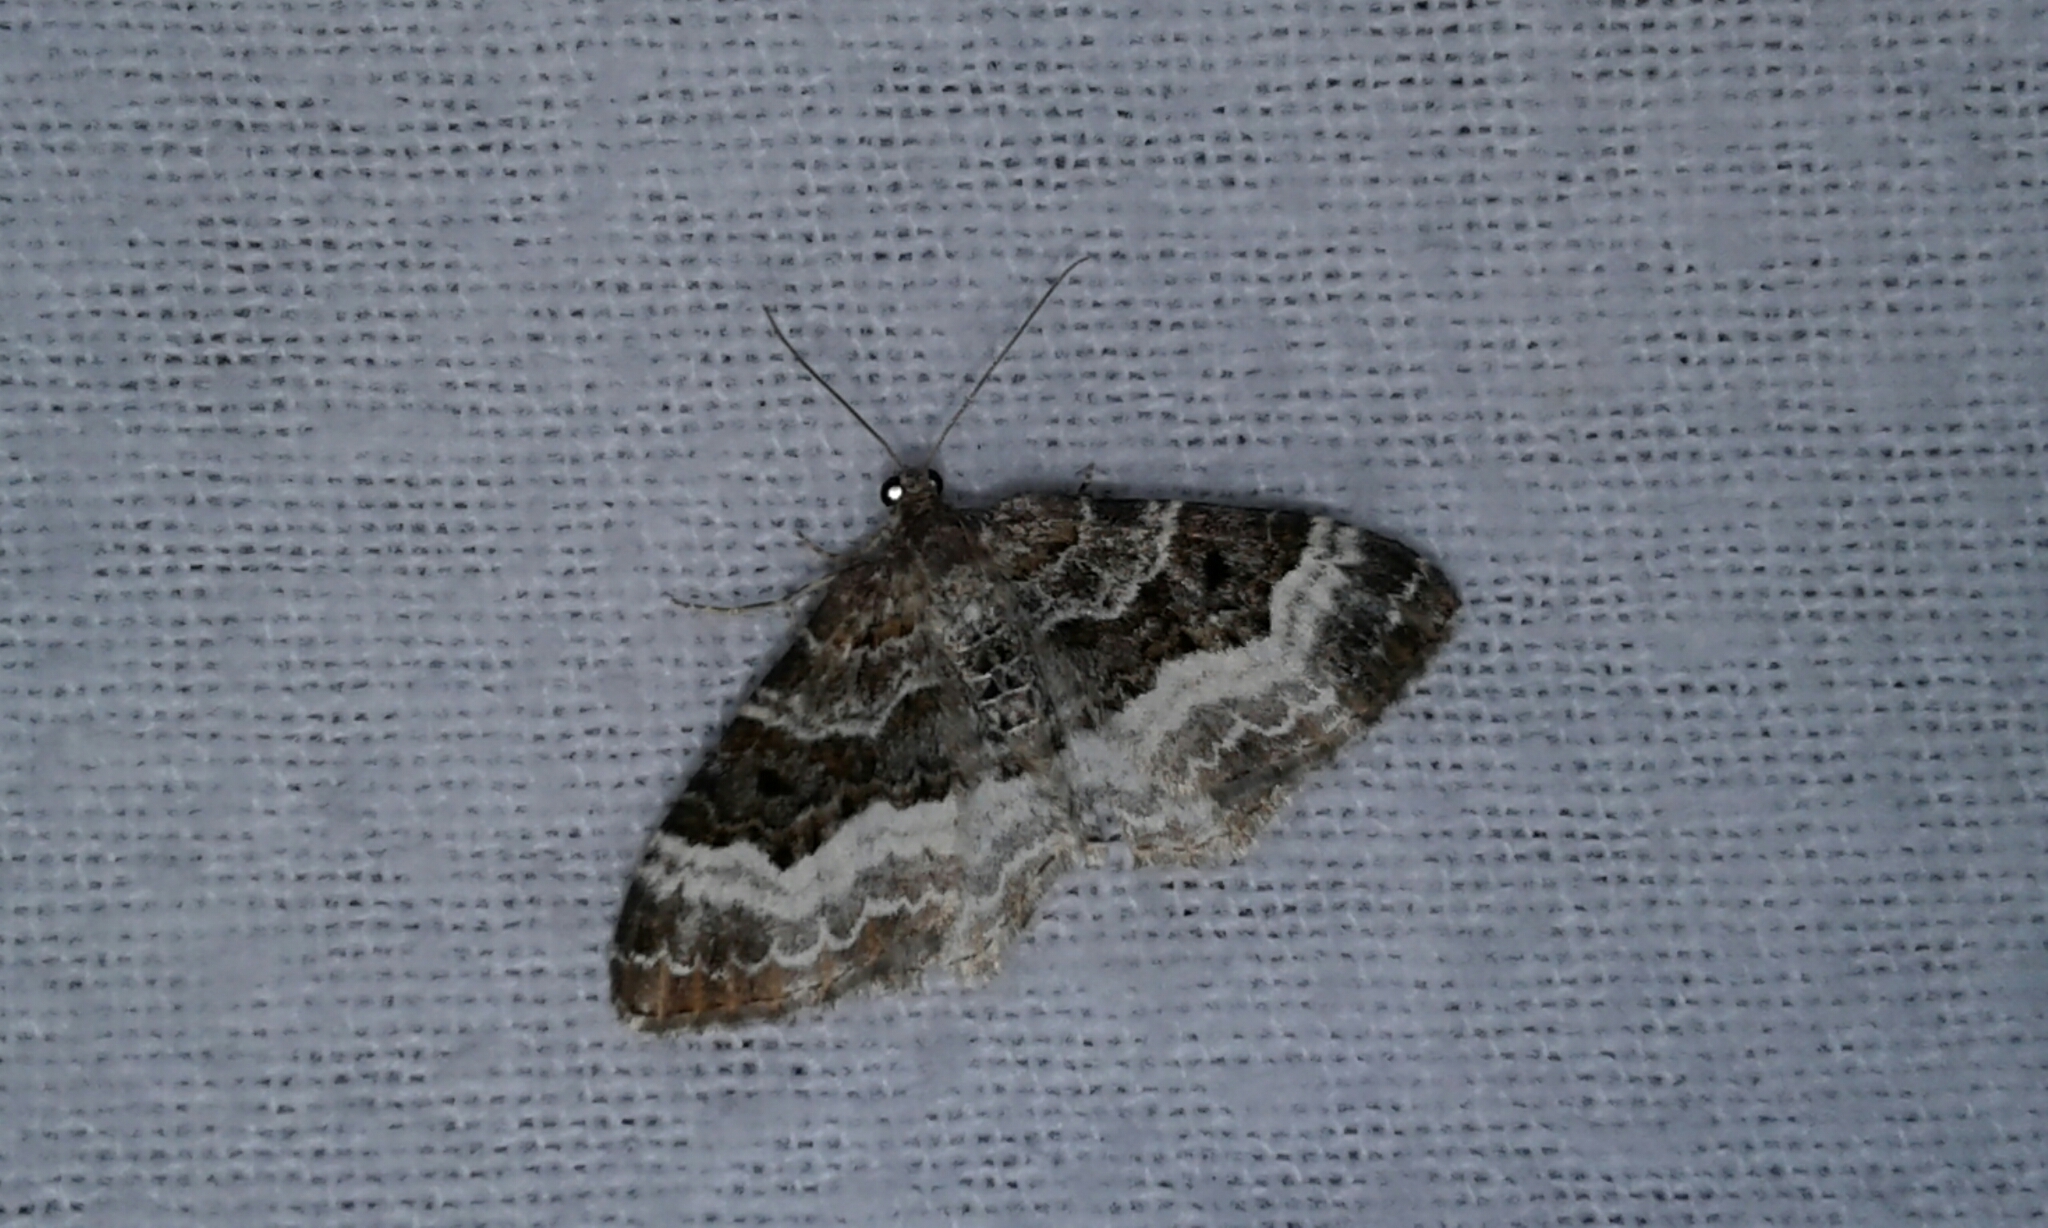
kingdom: Animalia
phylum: Arthropoda
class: Insecta
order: Lepidoptera
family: Geometridae
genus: Epirrhoe
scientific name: Epirrhoe alternata
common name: Common carpet
